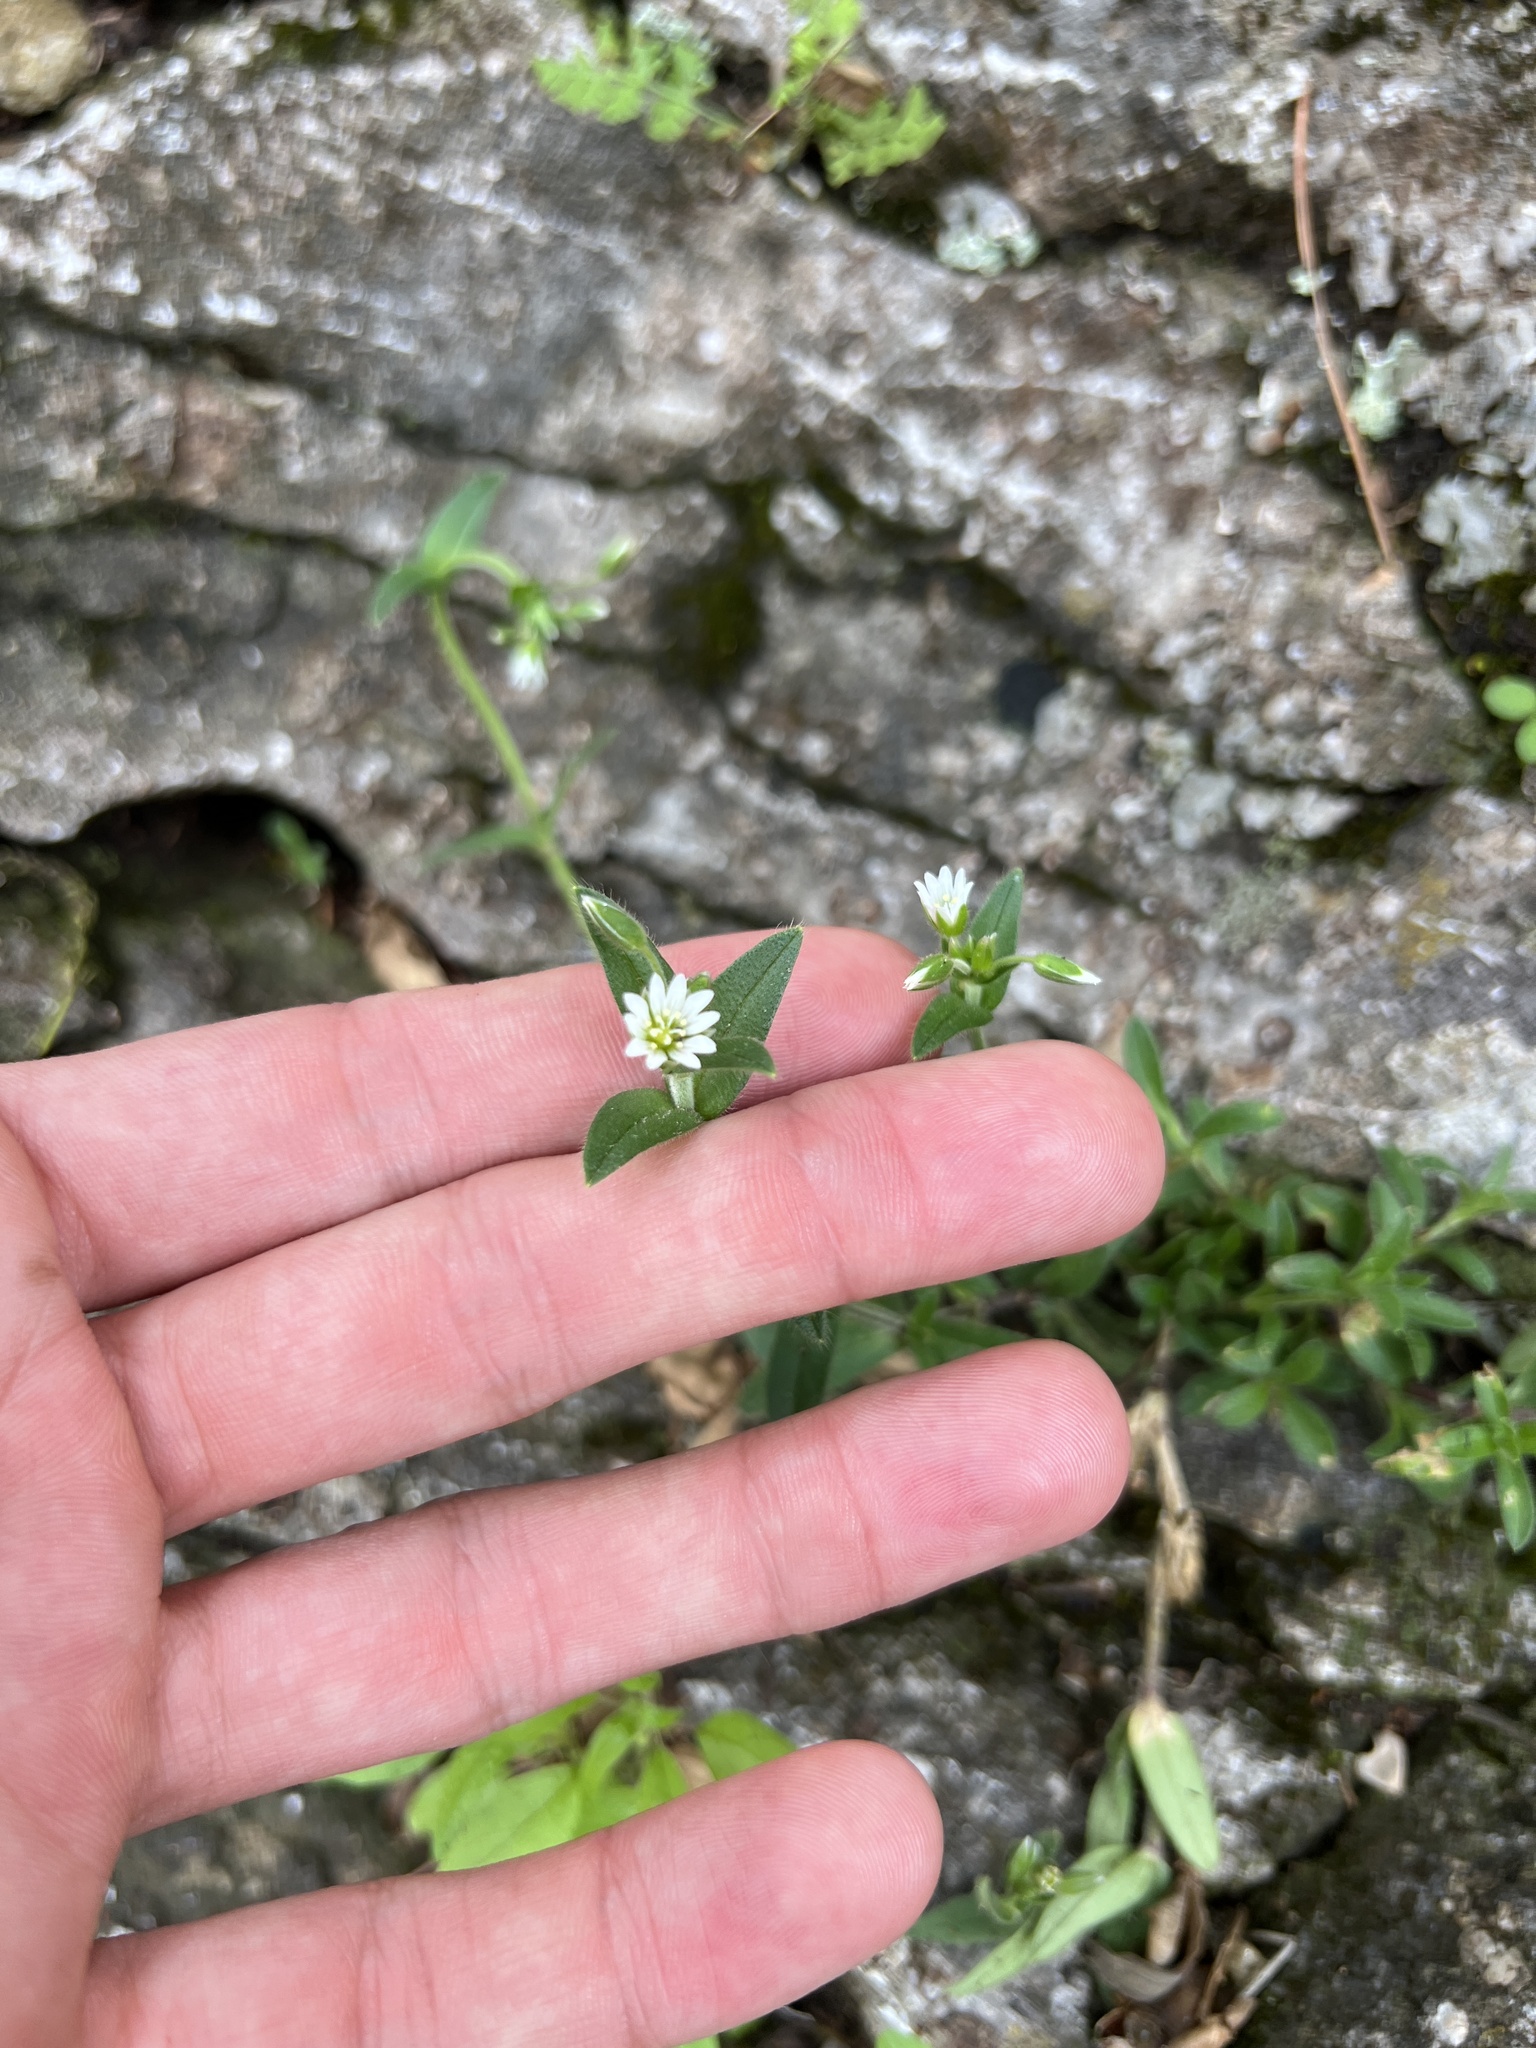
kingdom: Plantae
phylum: Tracheophyta
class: Magnoliopsida
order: Caryophyllales
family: Caryophyllaceae
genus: Cerastium
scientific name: Cerastium fontanum
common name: Common mouse-ear
